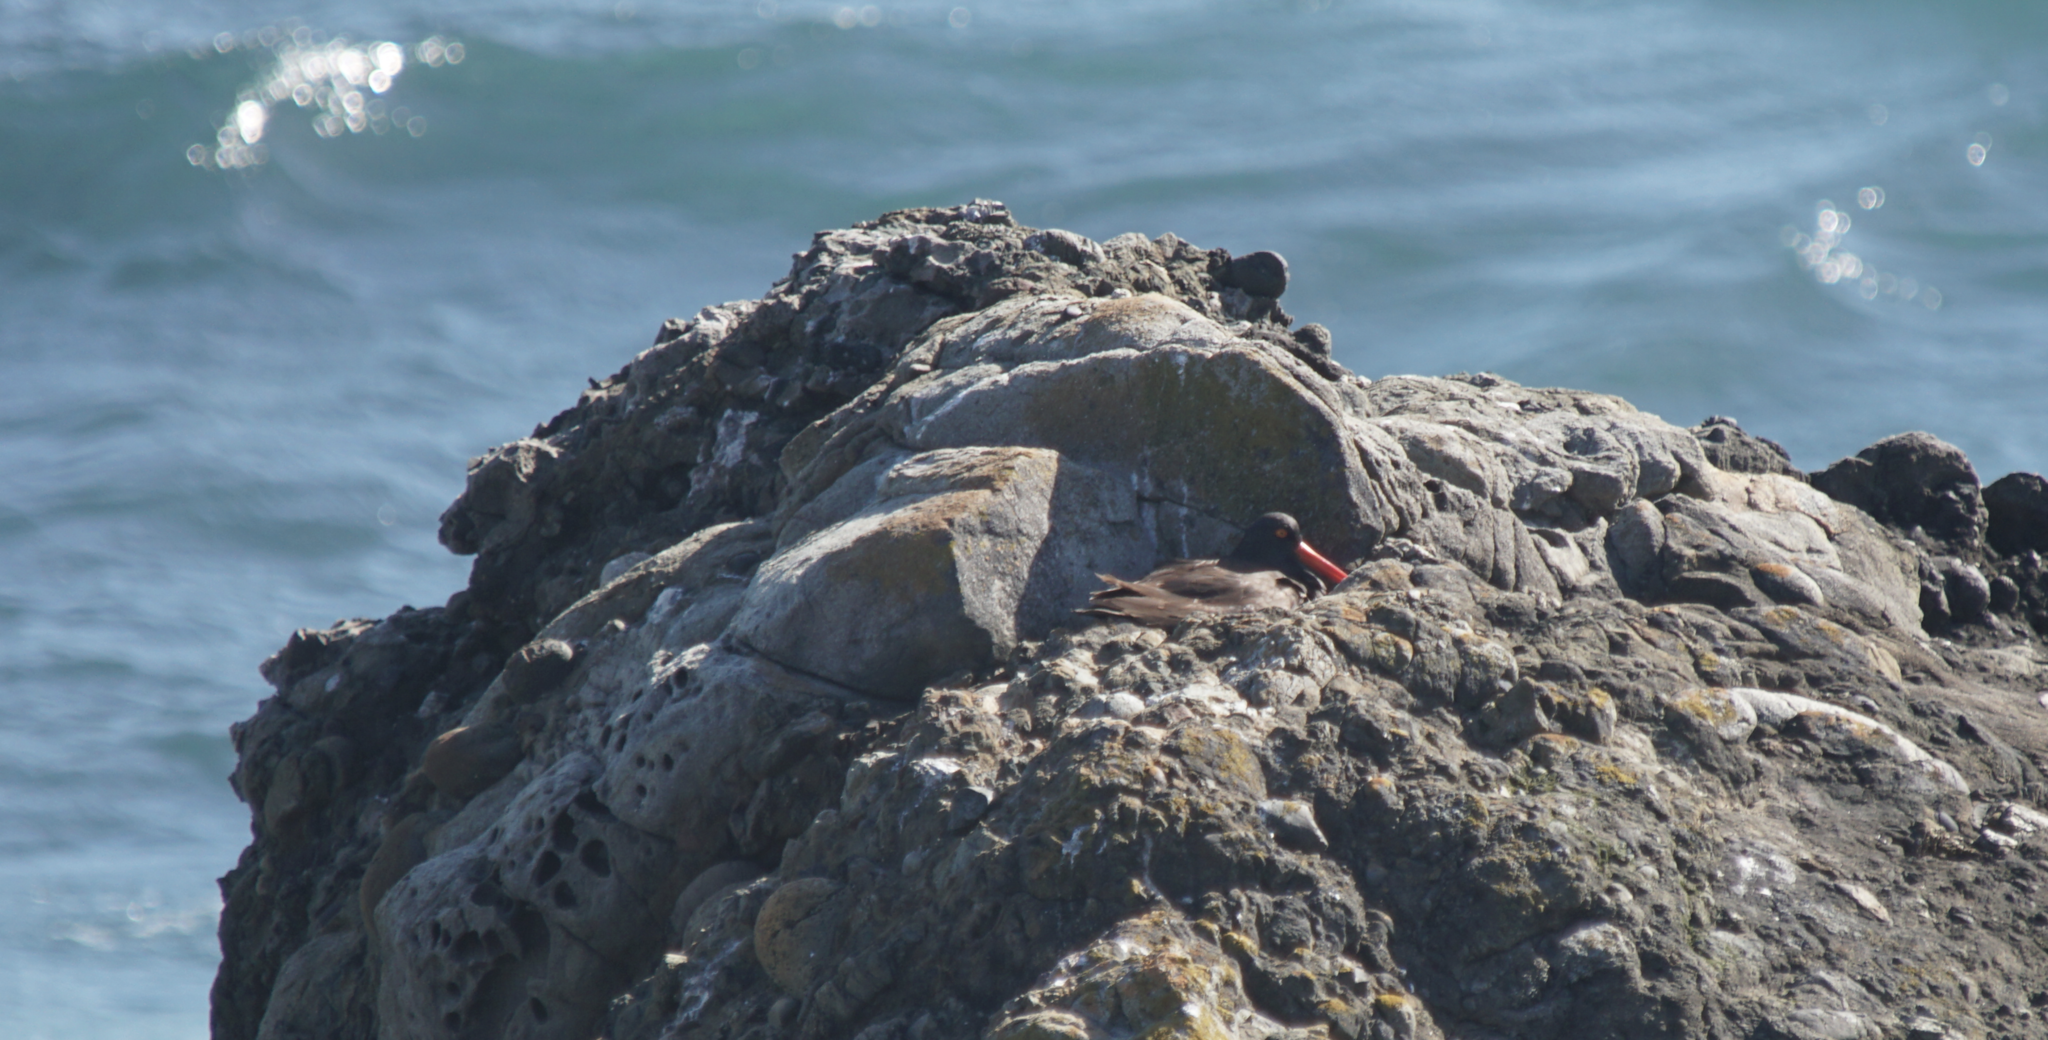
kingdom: Animalia
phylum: Chordata
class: Aves
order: Charadriiformes
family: Haematopodidae
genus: Haematopus
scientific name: Haematopus bachmani
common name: Black oystercatcher
